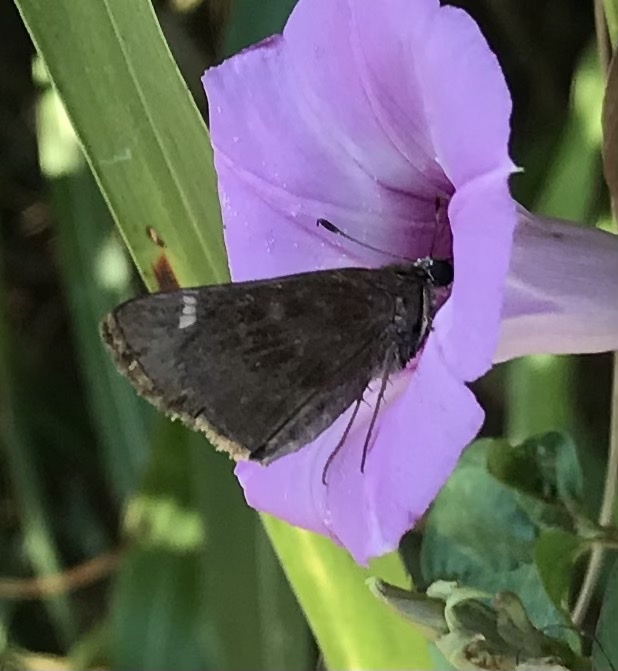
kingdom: Animalia
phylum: Arthropoda
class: Insecta
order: Lepidoptera
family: Hesperiidae
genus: Lerema
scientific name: Lerema accius
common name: Clouded skipper
